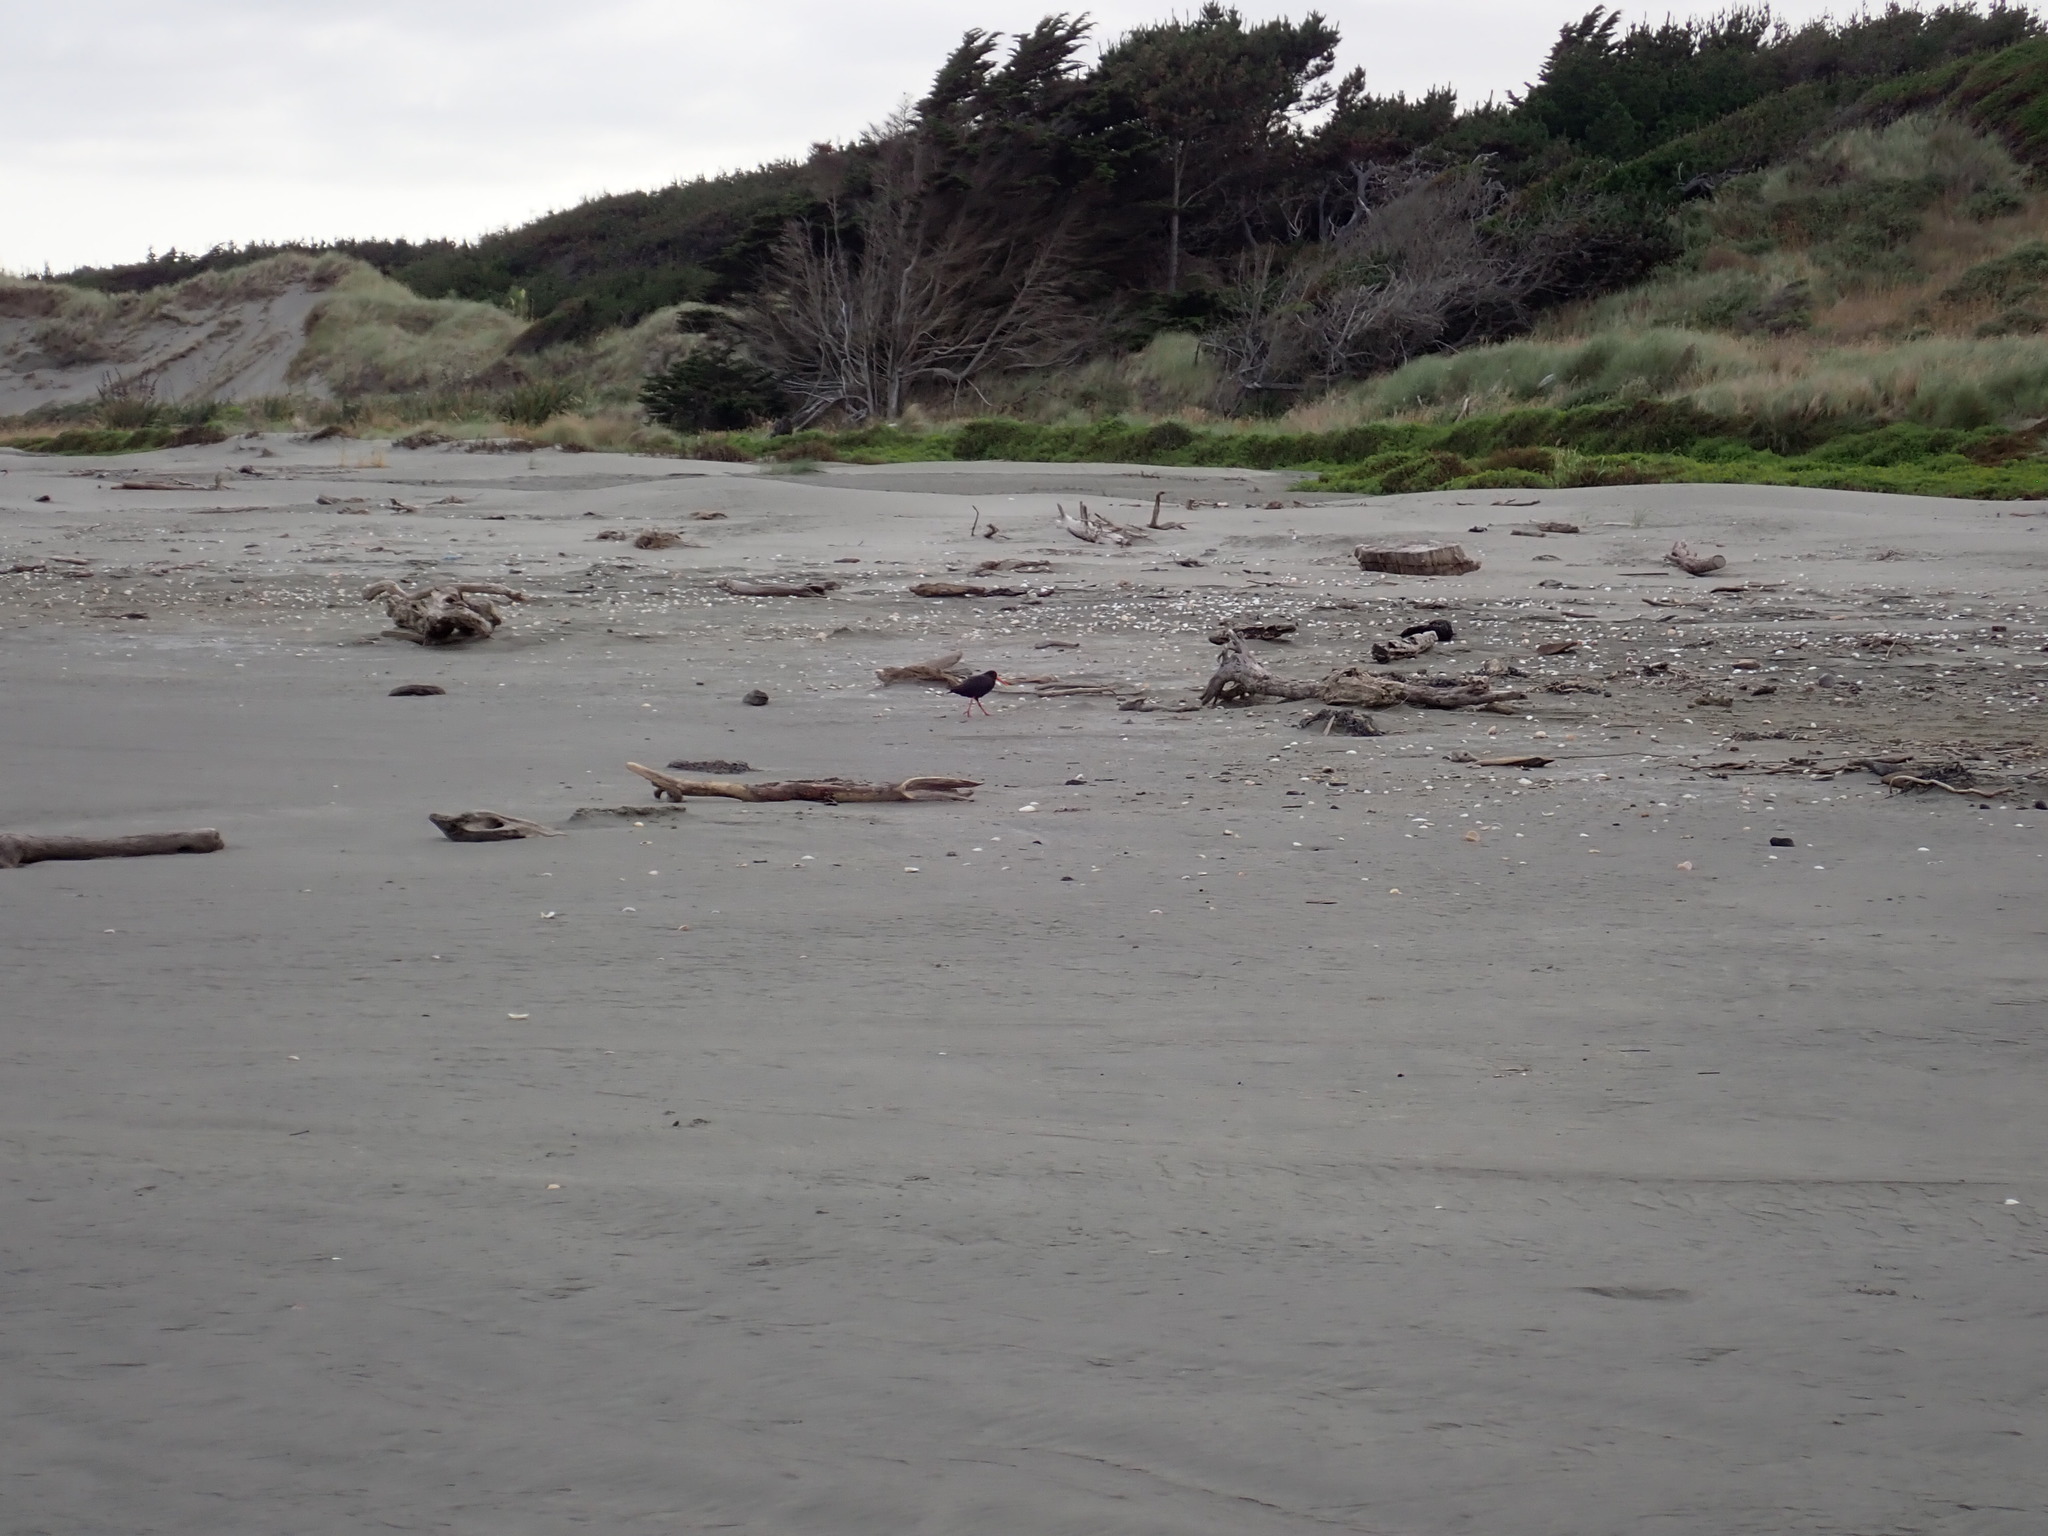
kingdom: Animalia
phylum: Chordata
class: Aves
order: Charadriiformes
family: Haematopodidae
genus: Haematopus
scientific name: Haematopus unicolor
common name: Variable oystercatcher
